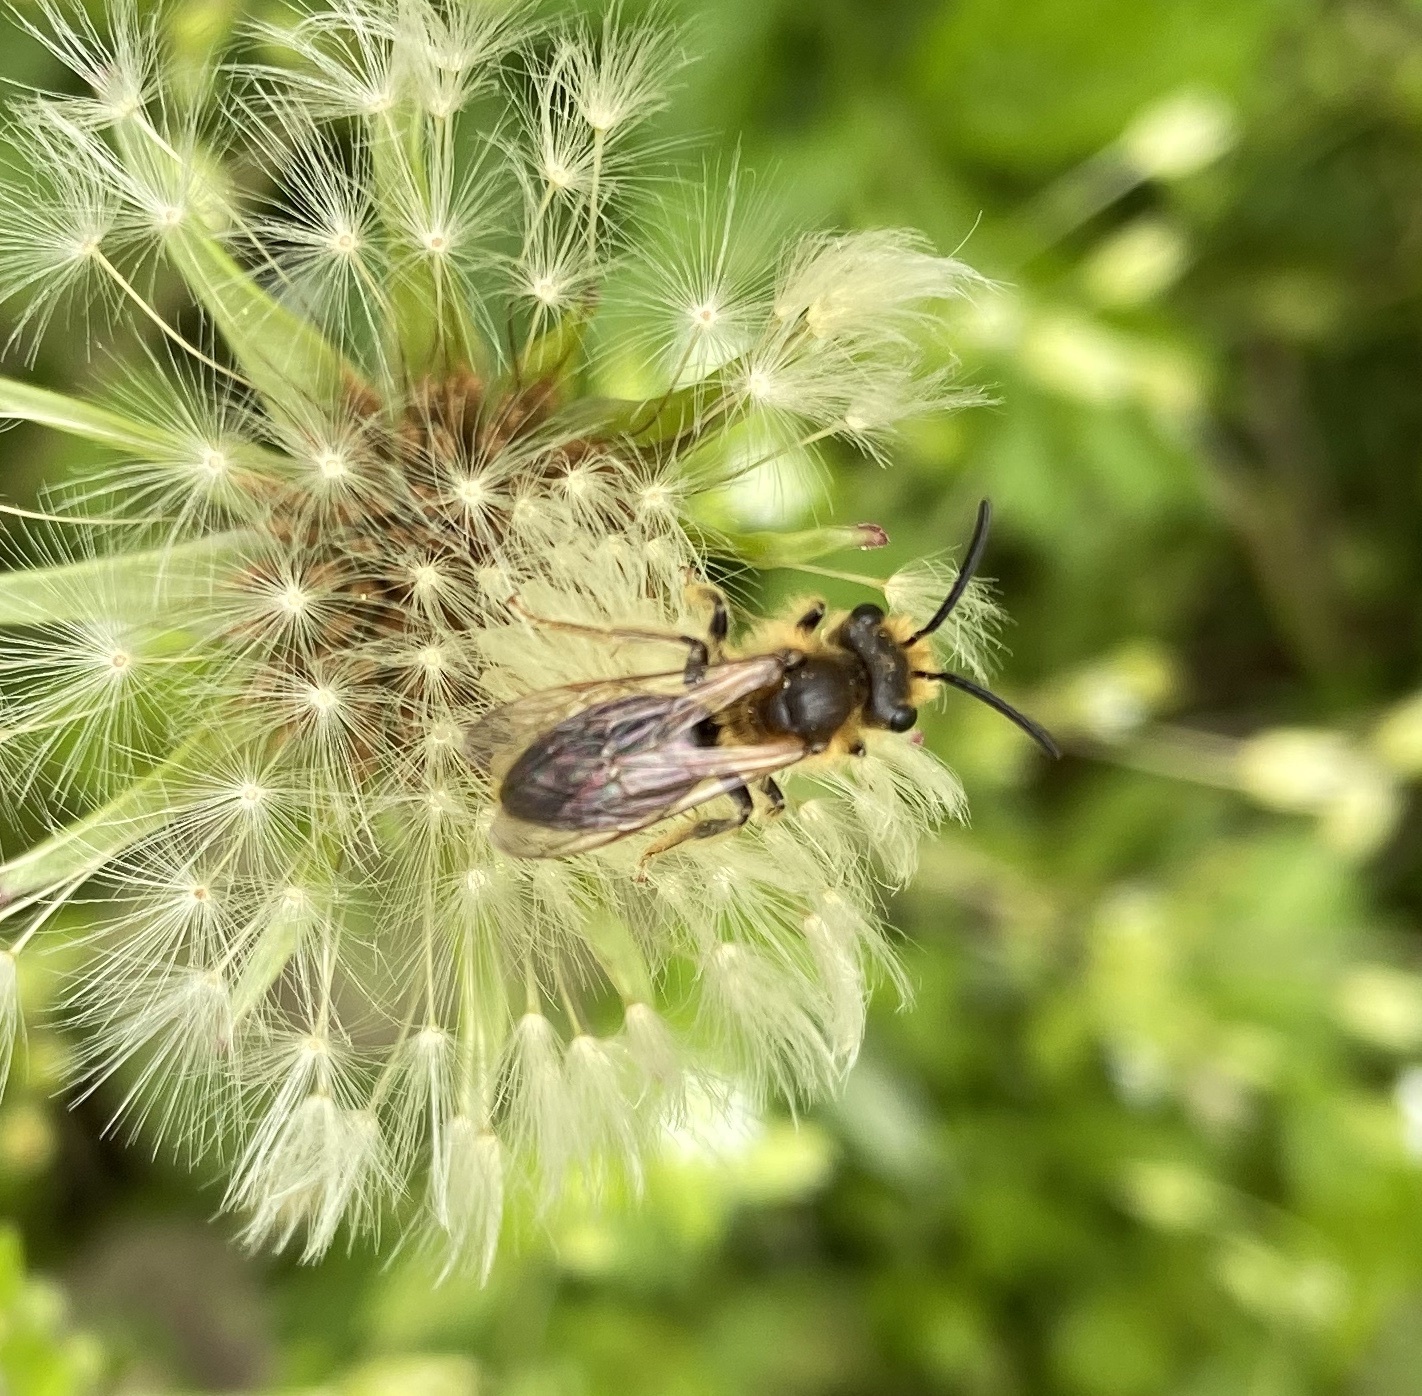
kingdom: Plantae
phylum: Tracheophyta
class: Magnoliopsida
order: Asterales
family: Asteraceae
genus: Taraxacum
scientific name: Taraxacum officinale
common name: Common dandelion
